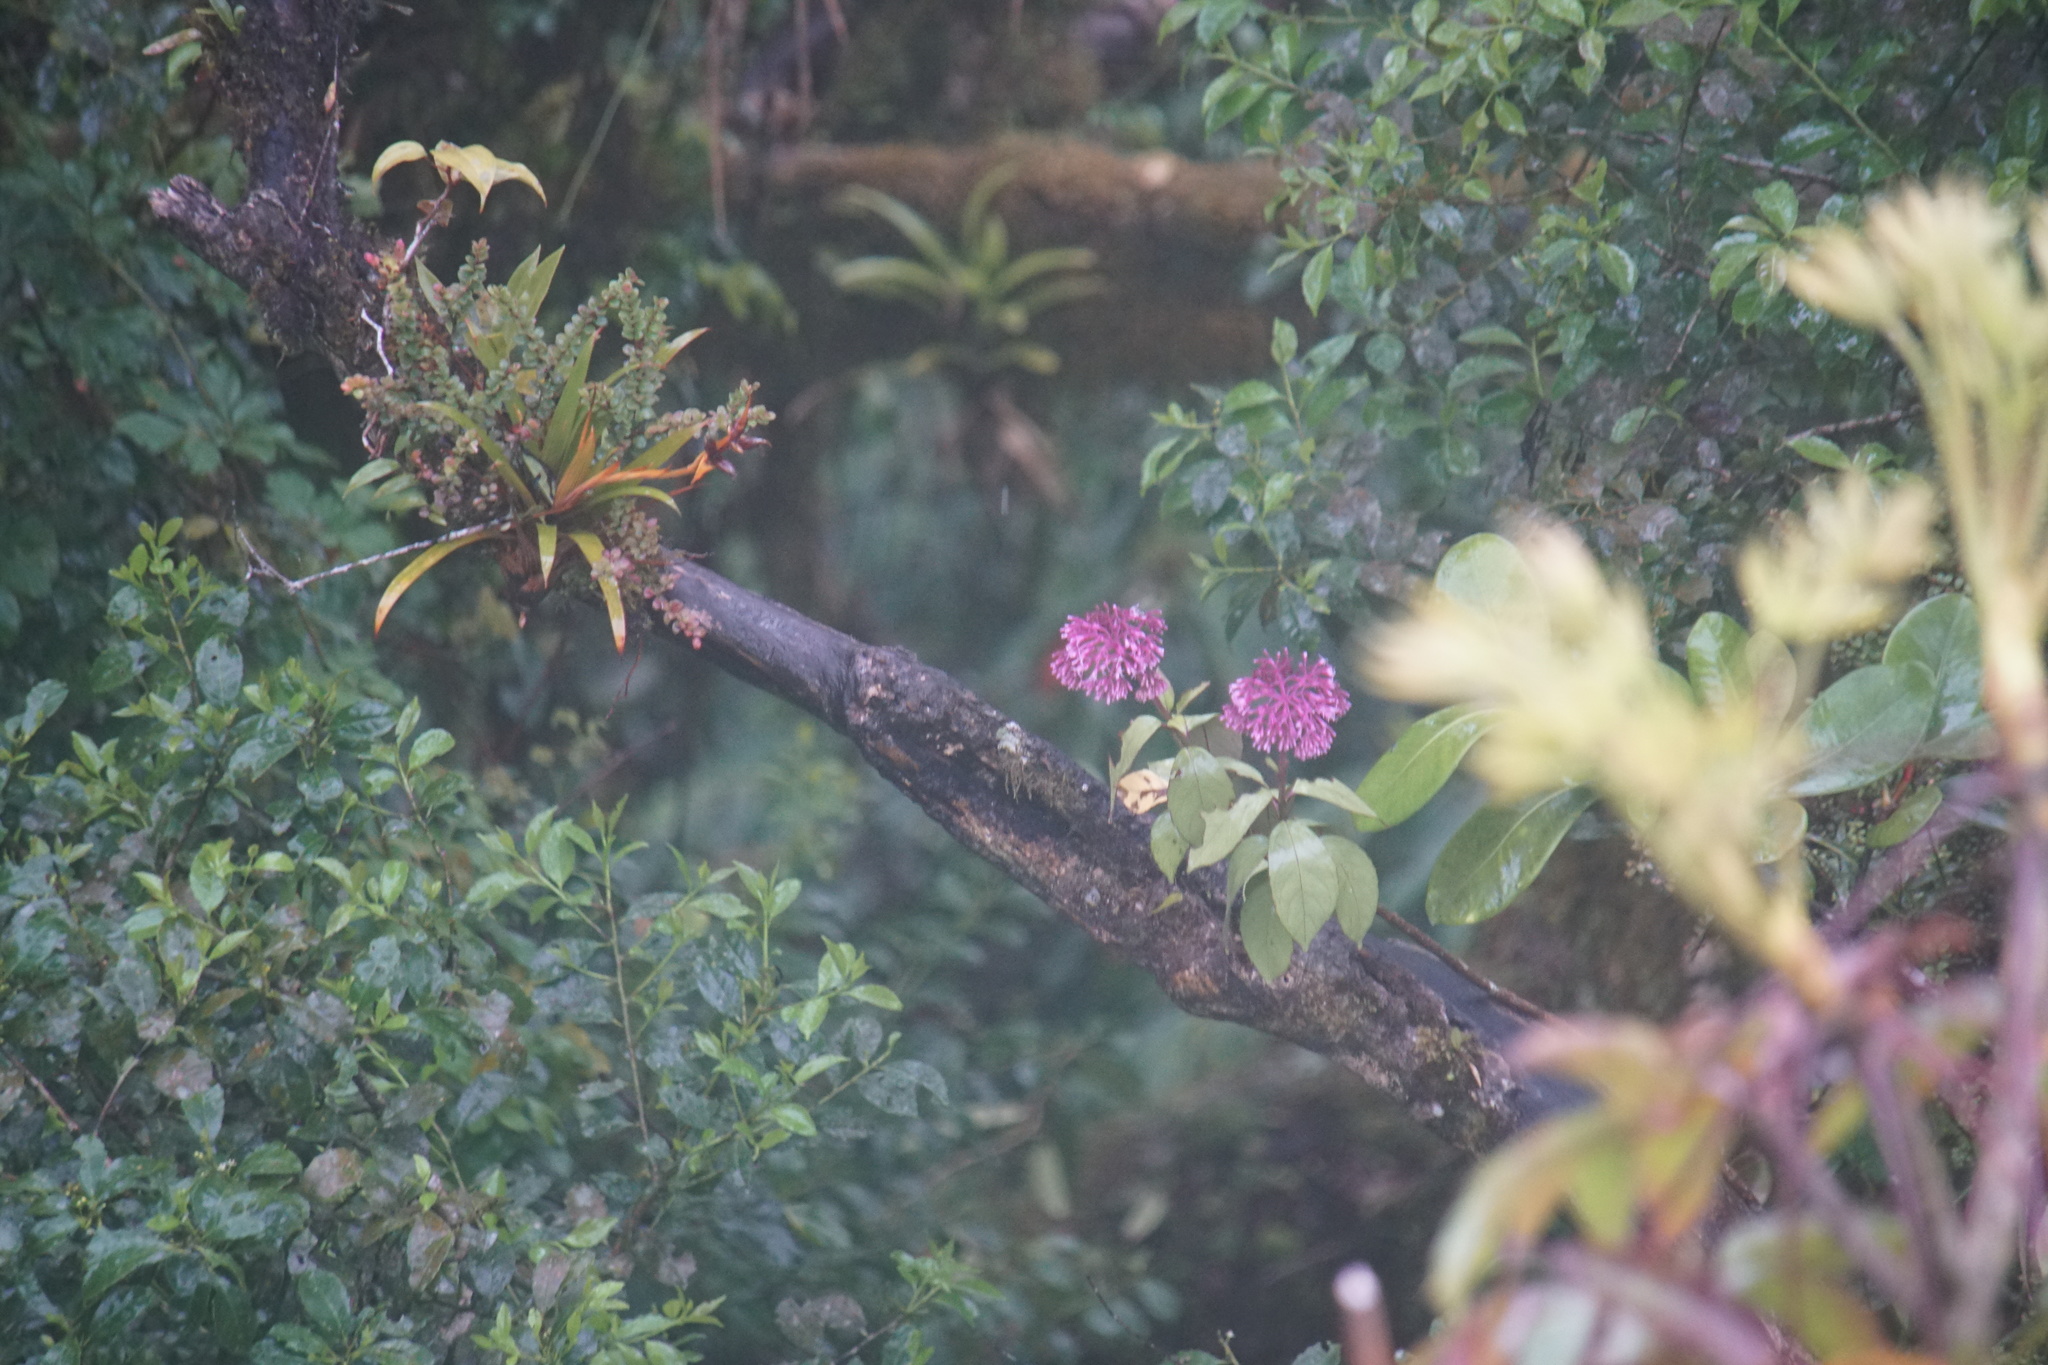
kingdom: Plantae
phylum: Tracheophyta
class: Magnoliopsida
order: Myrtales
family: Onagraceae
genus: Fuchsia
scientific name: Fuchsia paniculata
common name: Shrubby fuchsia
